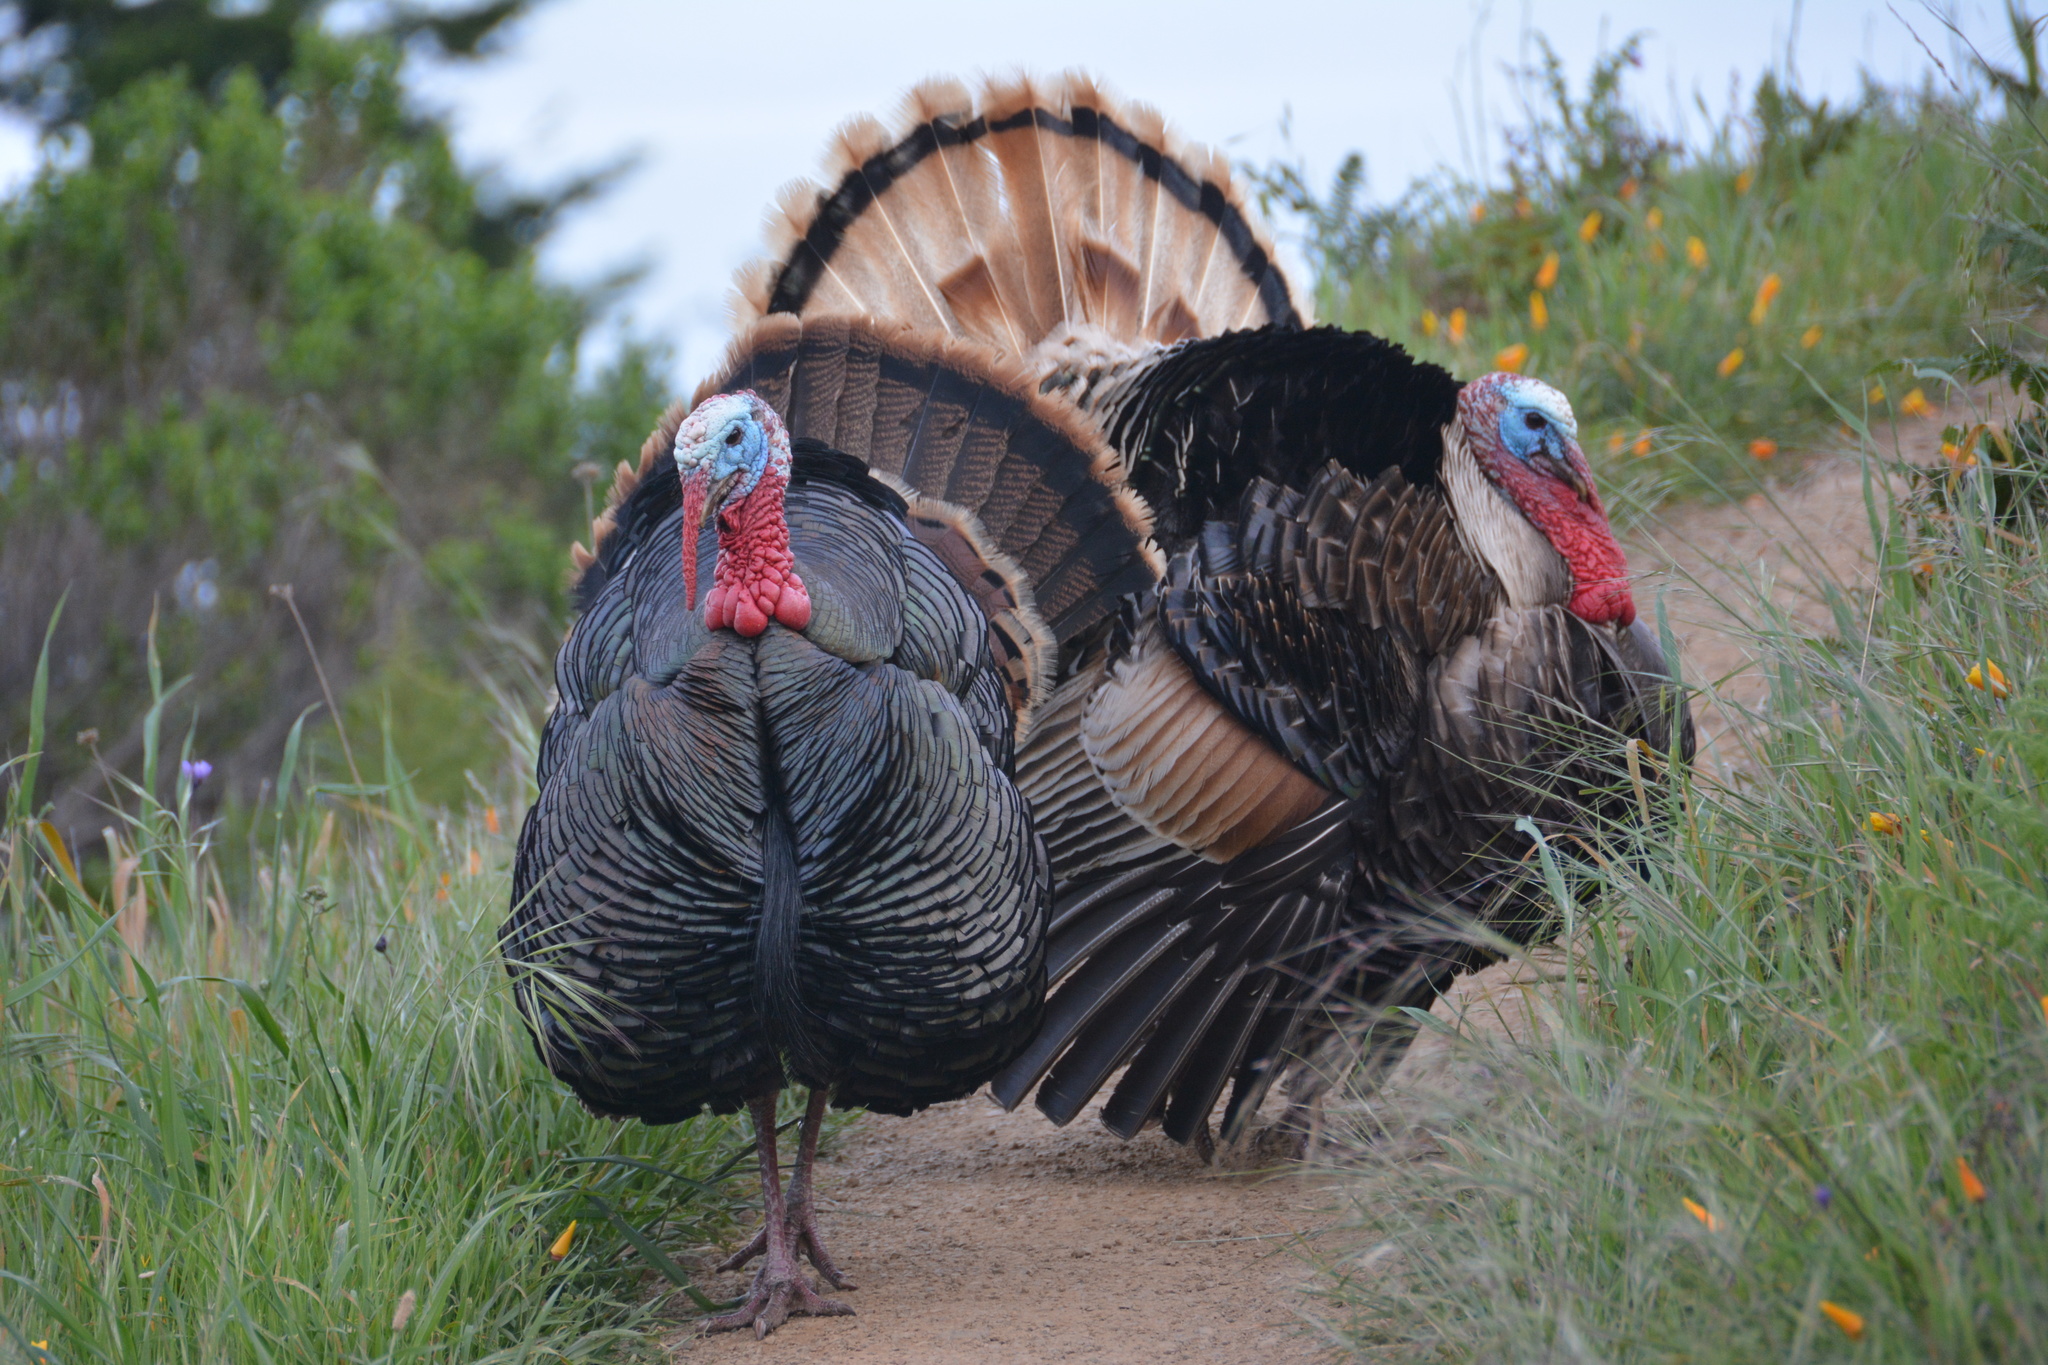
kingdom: Animalia
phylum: Chordata
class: Aves
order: Galliformes
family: Phasianidae
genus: Meleagris
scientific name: Meleagris gallopavo
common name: Wild turkey
